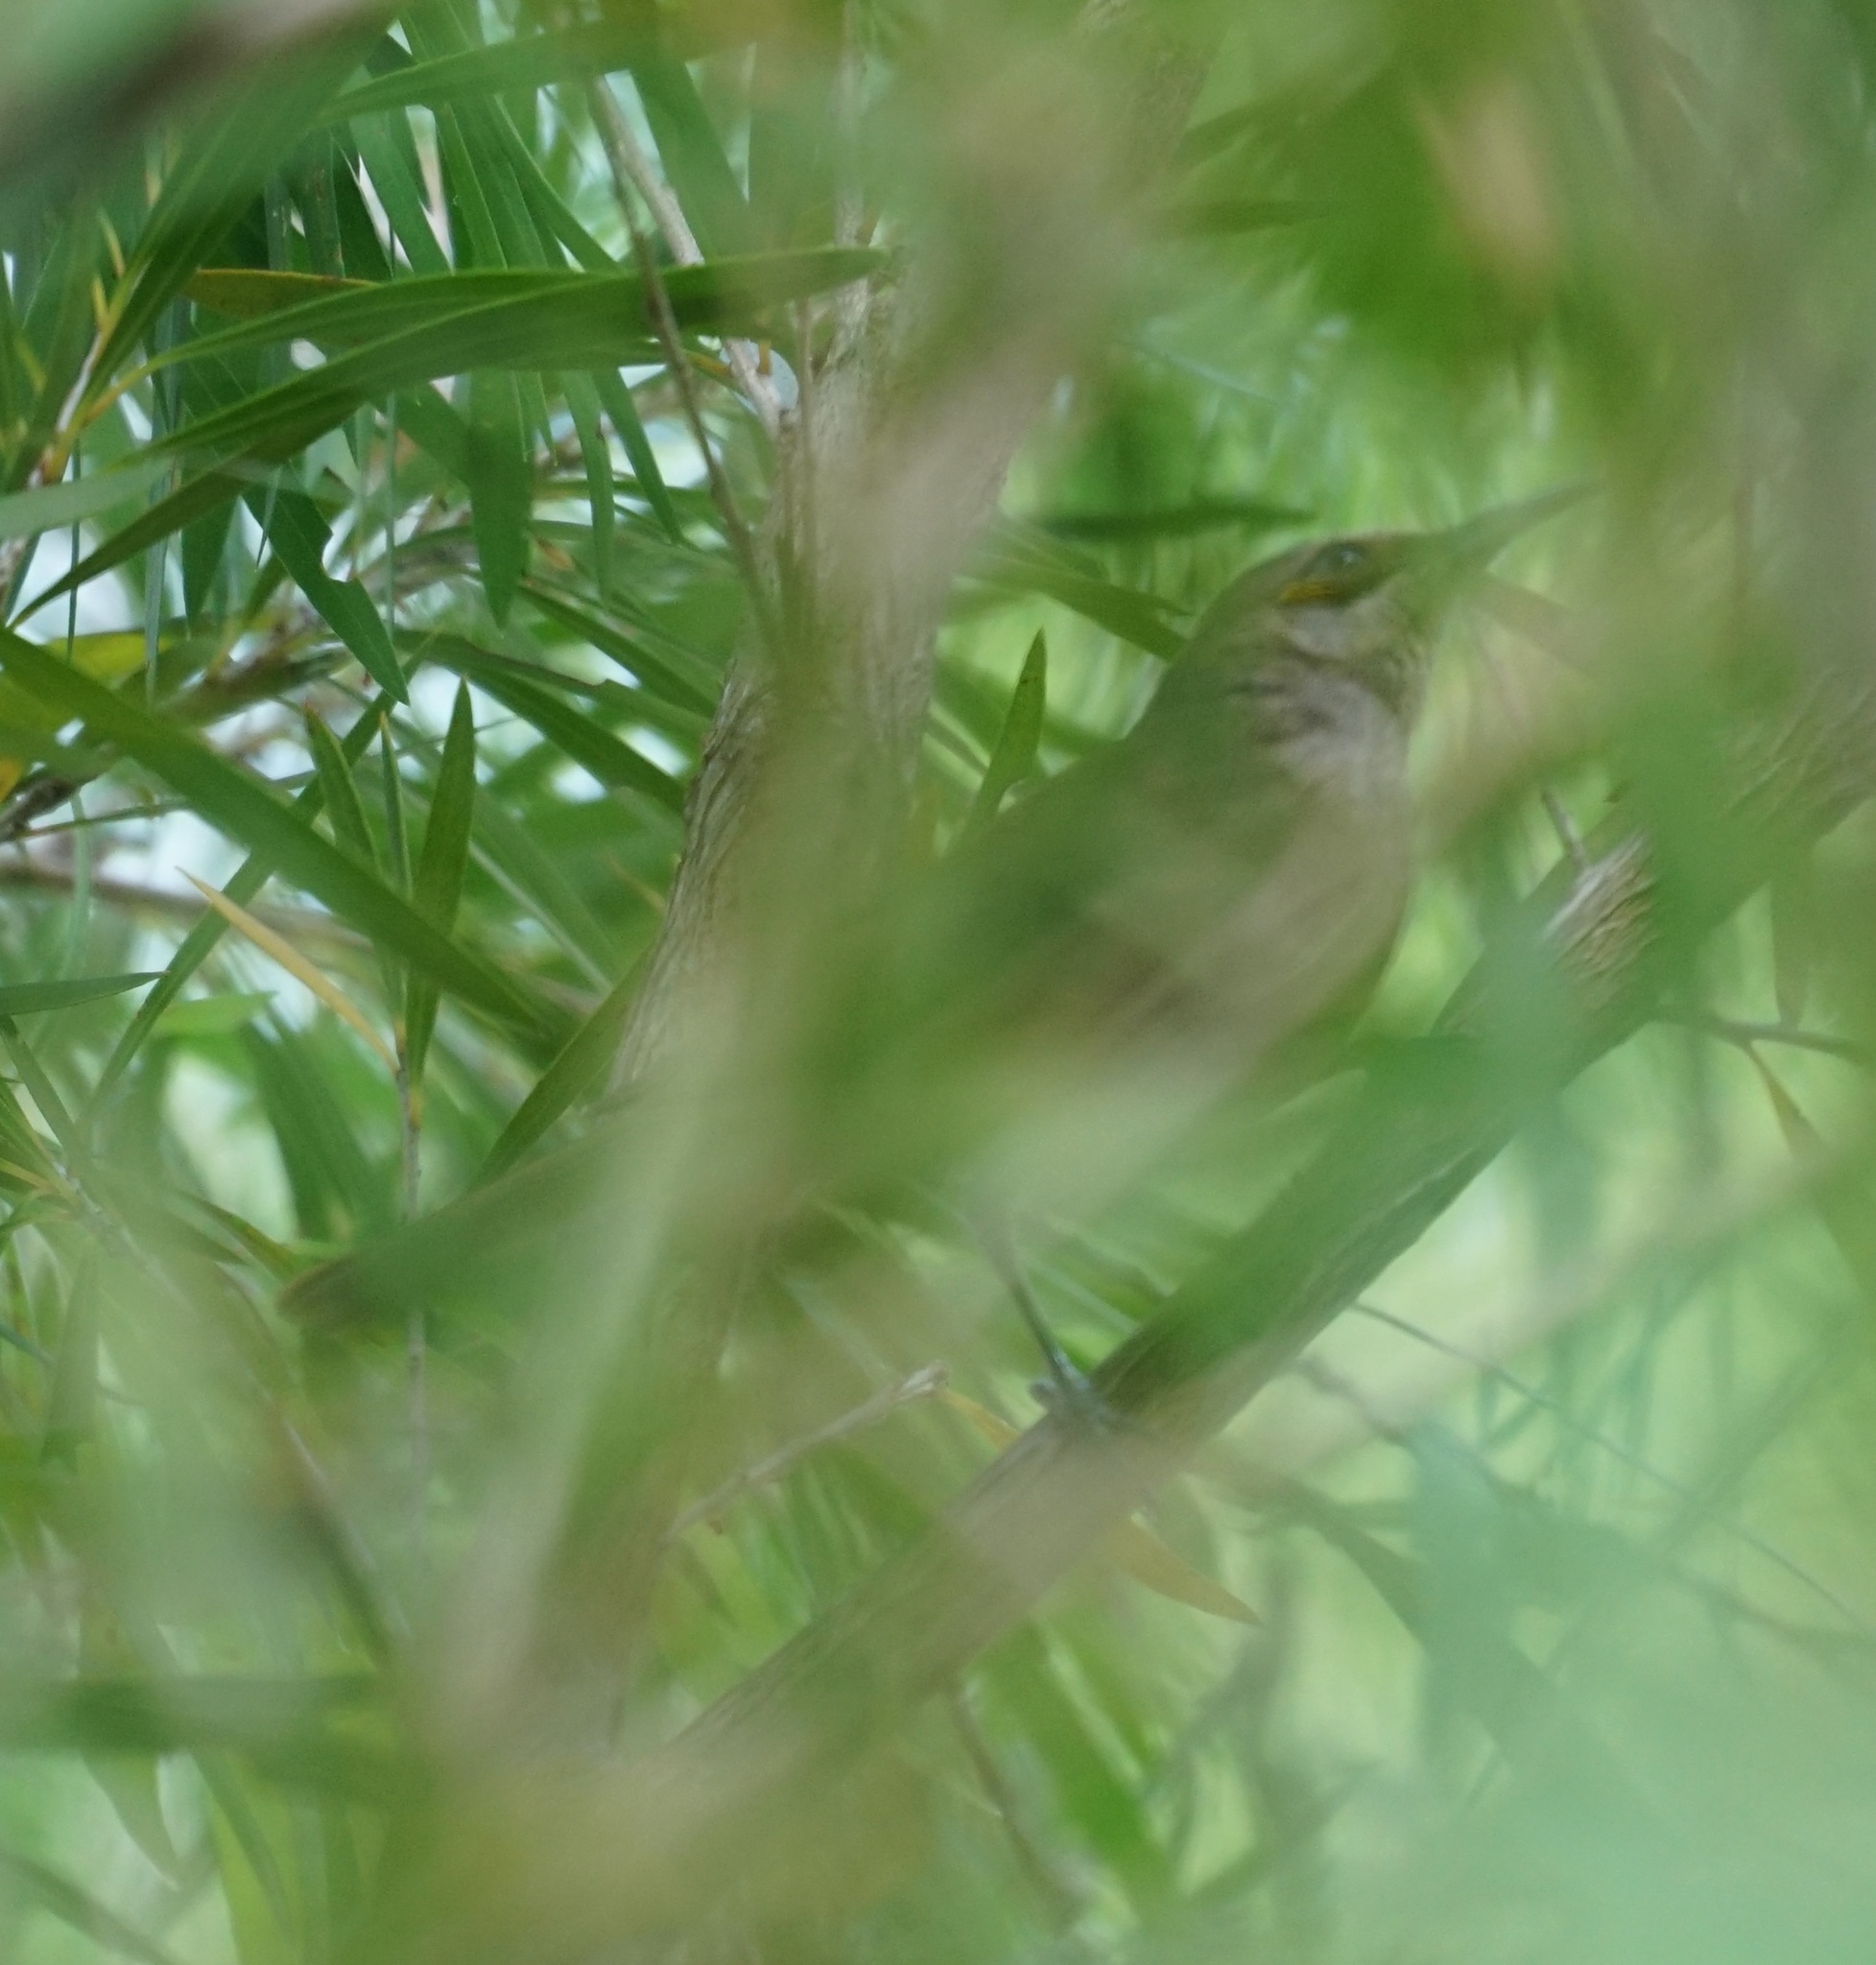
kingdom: Animalia
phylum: Chordata
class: Aves
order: Passeriformes
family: Meliphagidae
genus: Lichmera
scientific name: Lichmera indistincta
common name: Brown honeyeater
